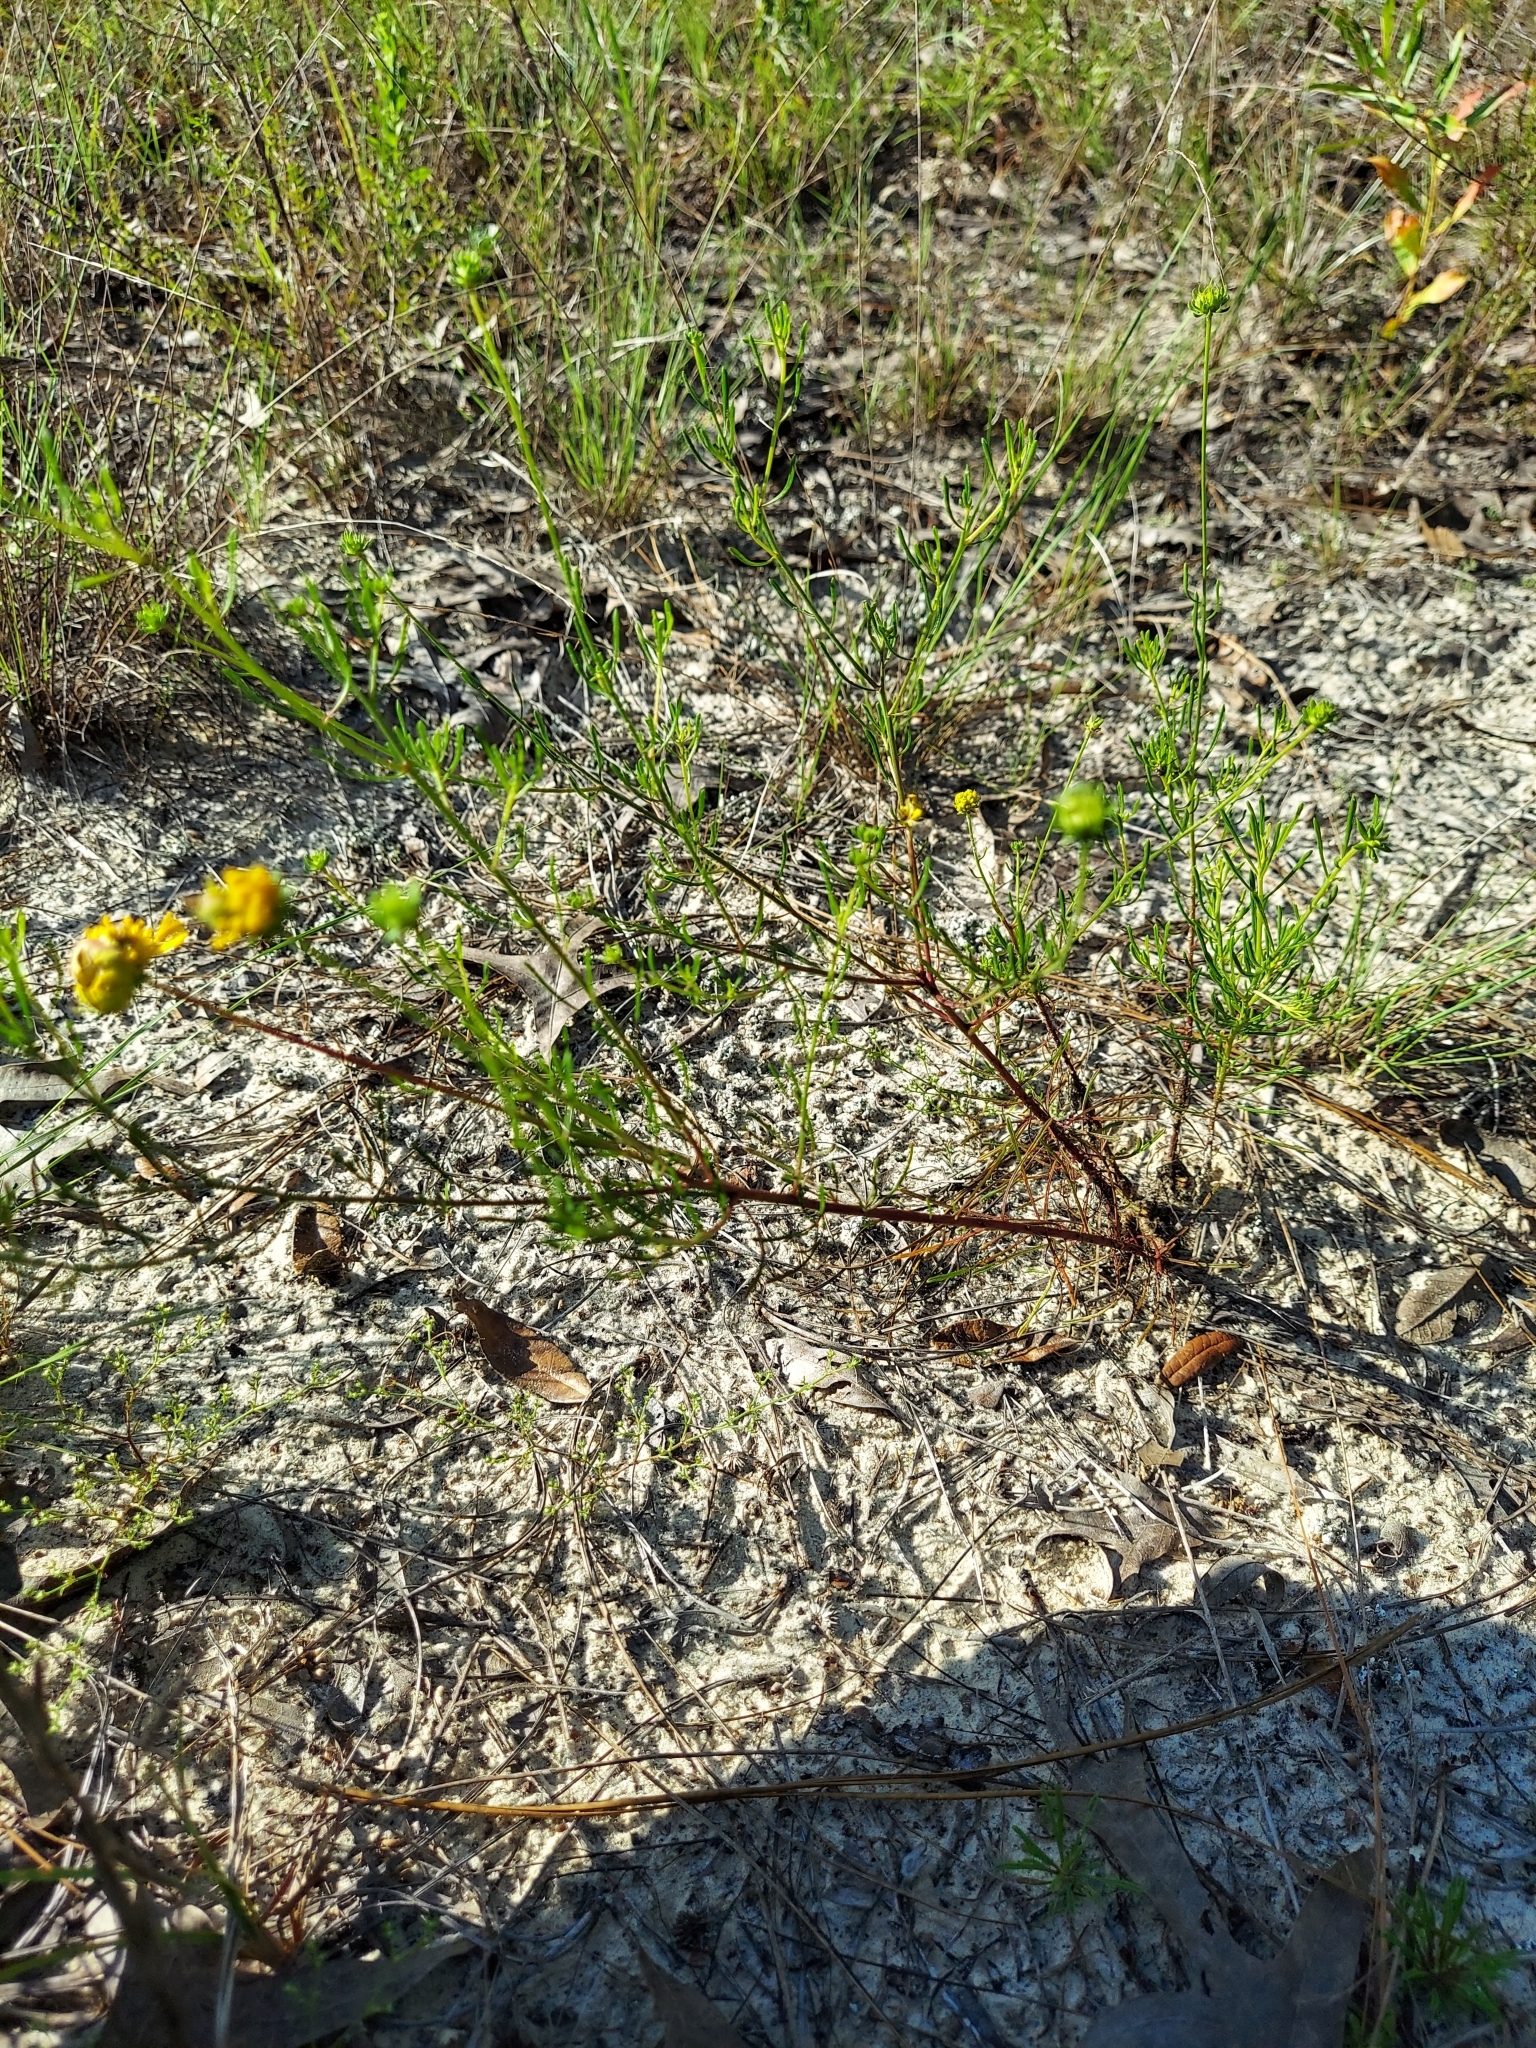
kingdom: Plantae
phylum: Tracheophyta
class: Magnoliopsida
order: Asterales
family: Asteraceae
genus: Balduina
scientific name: Balduina angustifolia
